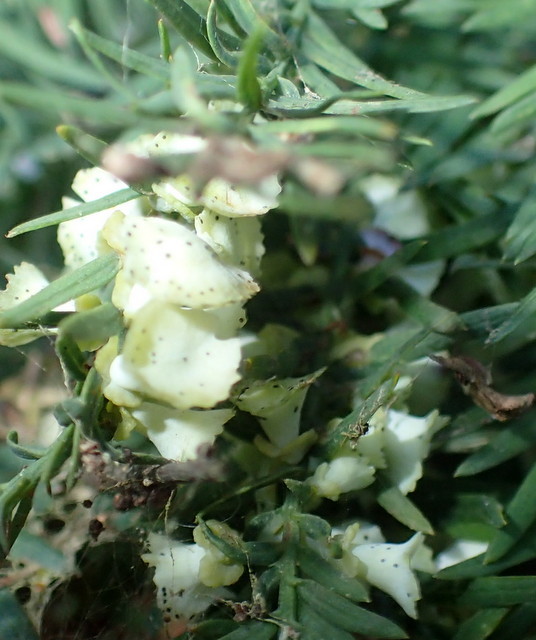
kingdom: Animalia
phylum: Arthropoda
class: Insecta
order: Diptera
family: Cecidomyiidae
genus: Taxodiomyia
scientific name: Taxodiomyia cupressi
